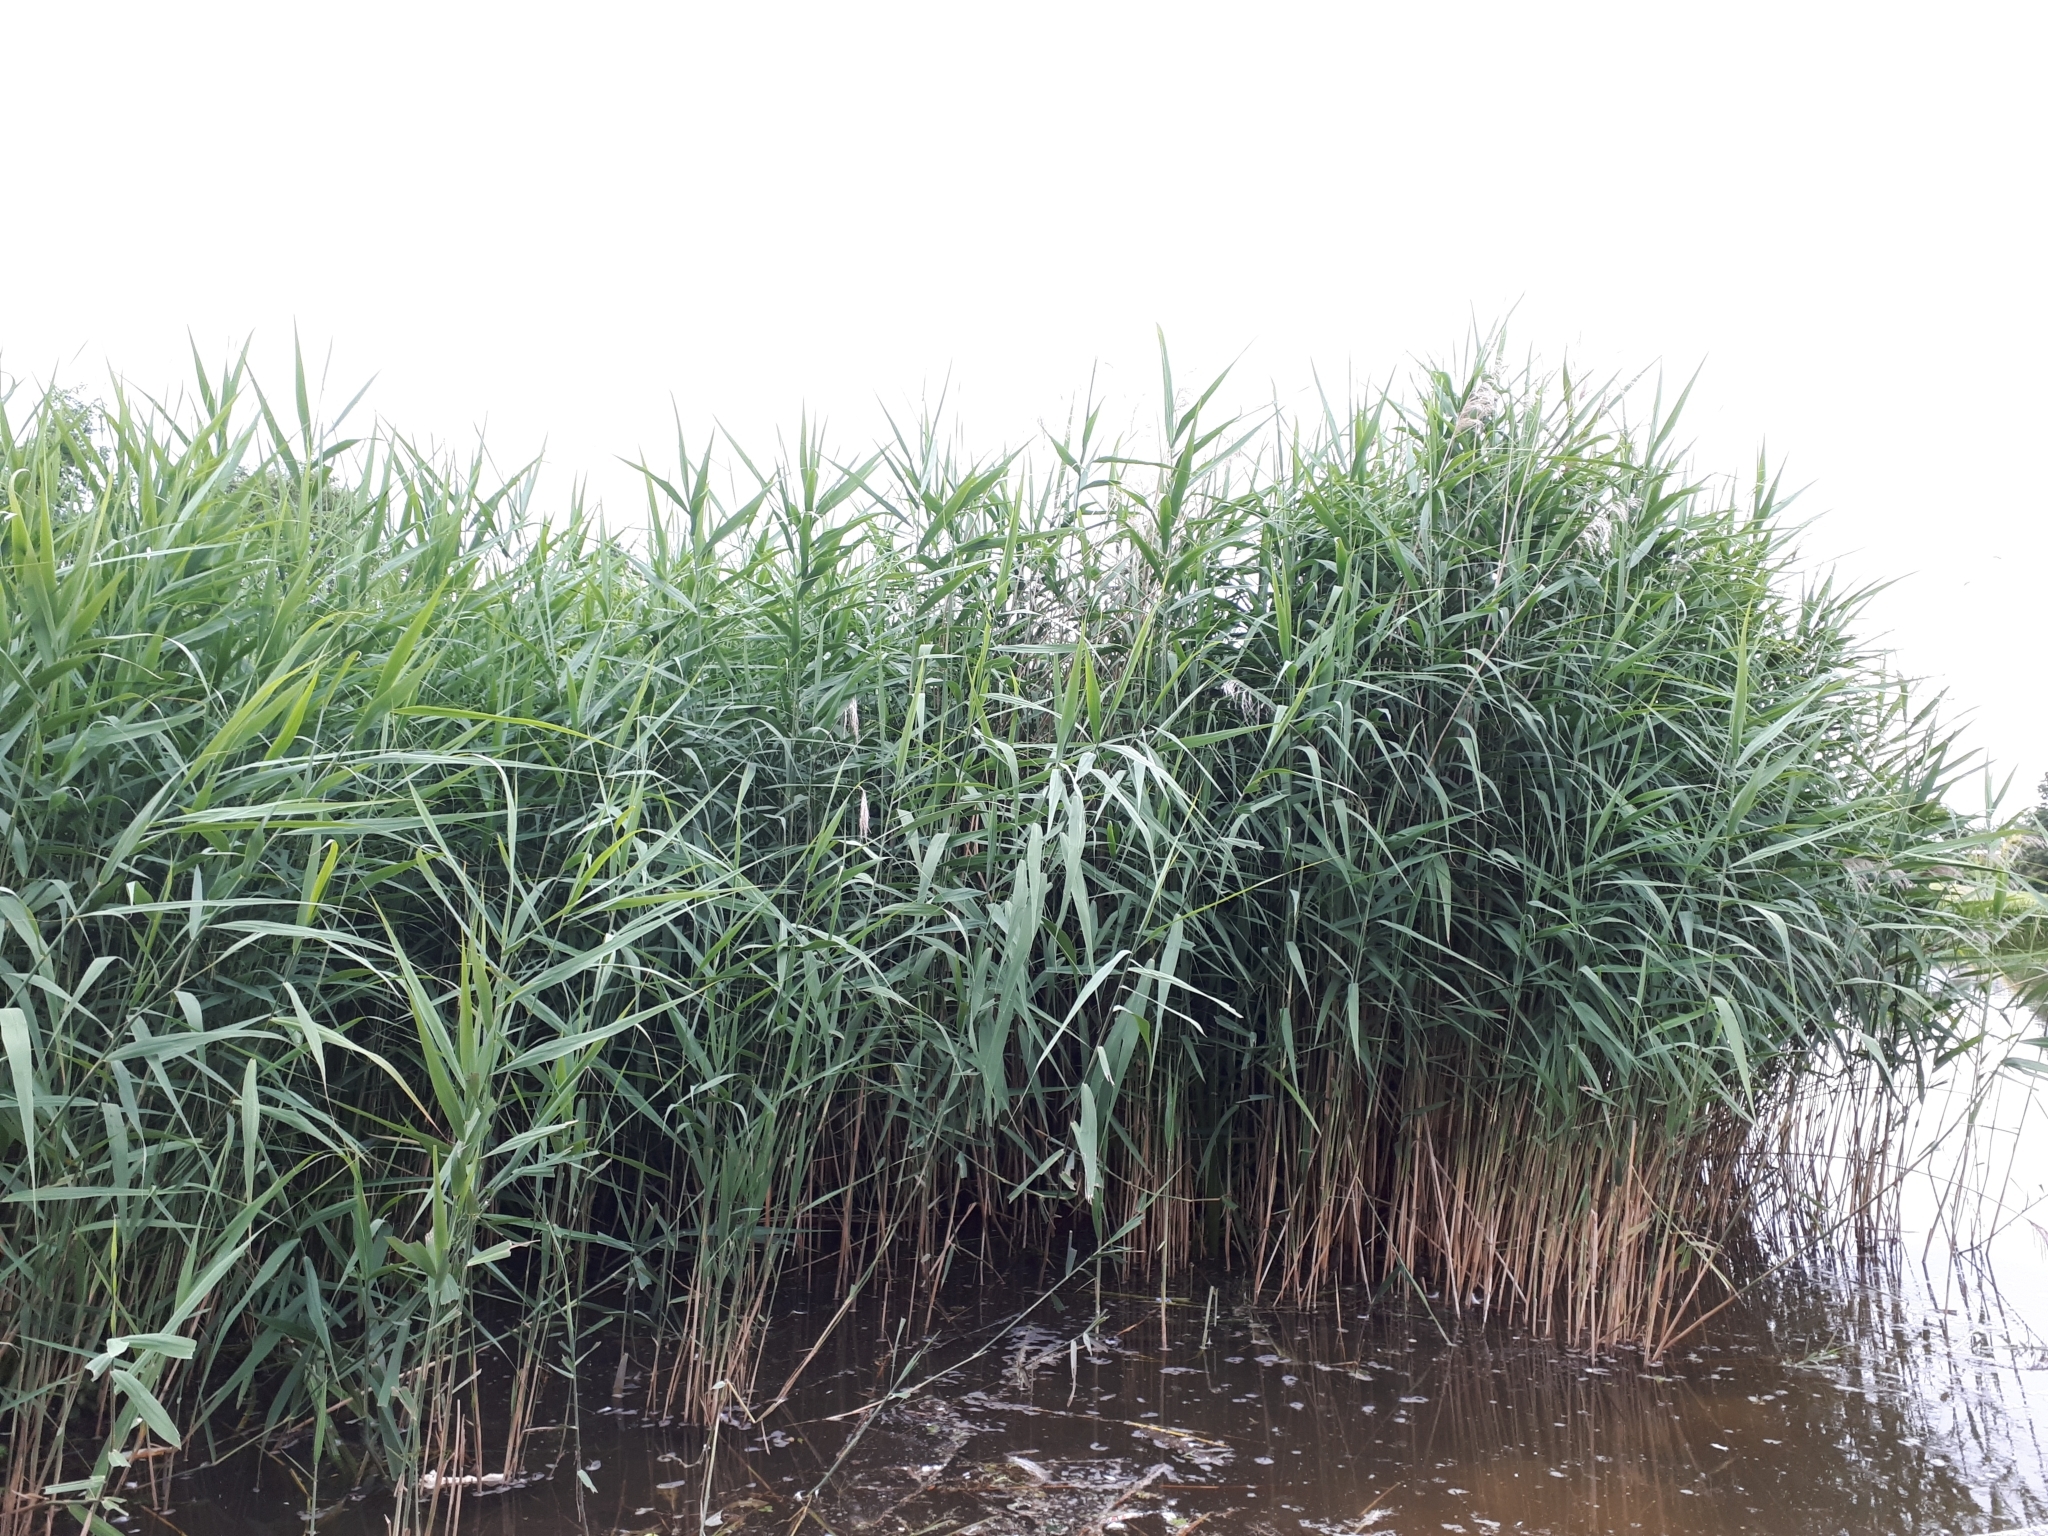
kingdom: Plantae
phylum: Tracheophyta
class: Liliopsida
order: Poales
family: Poaceae
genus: Phragmites
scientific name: Phragmites australis
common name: Common reed
